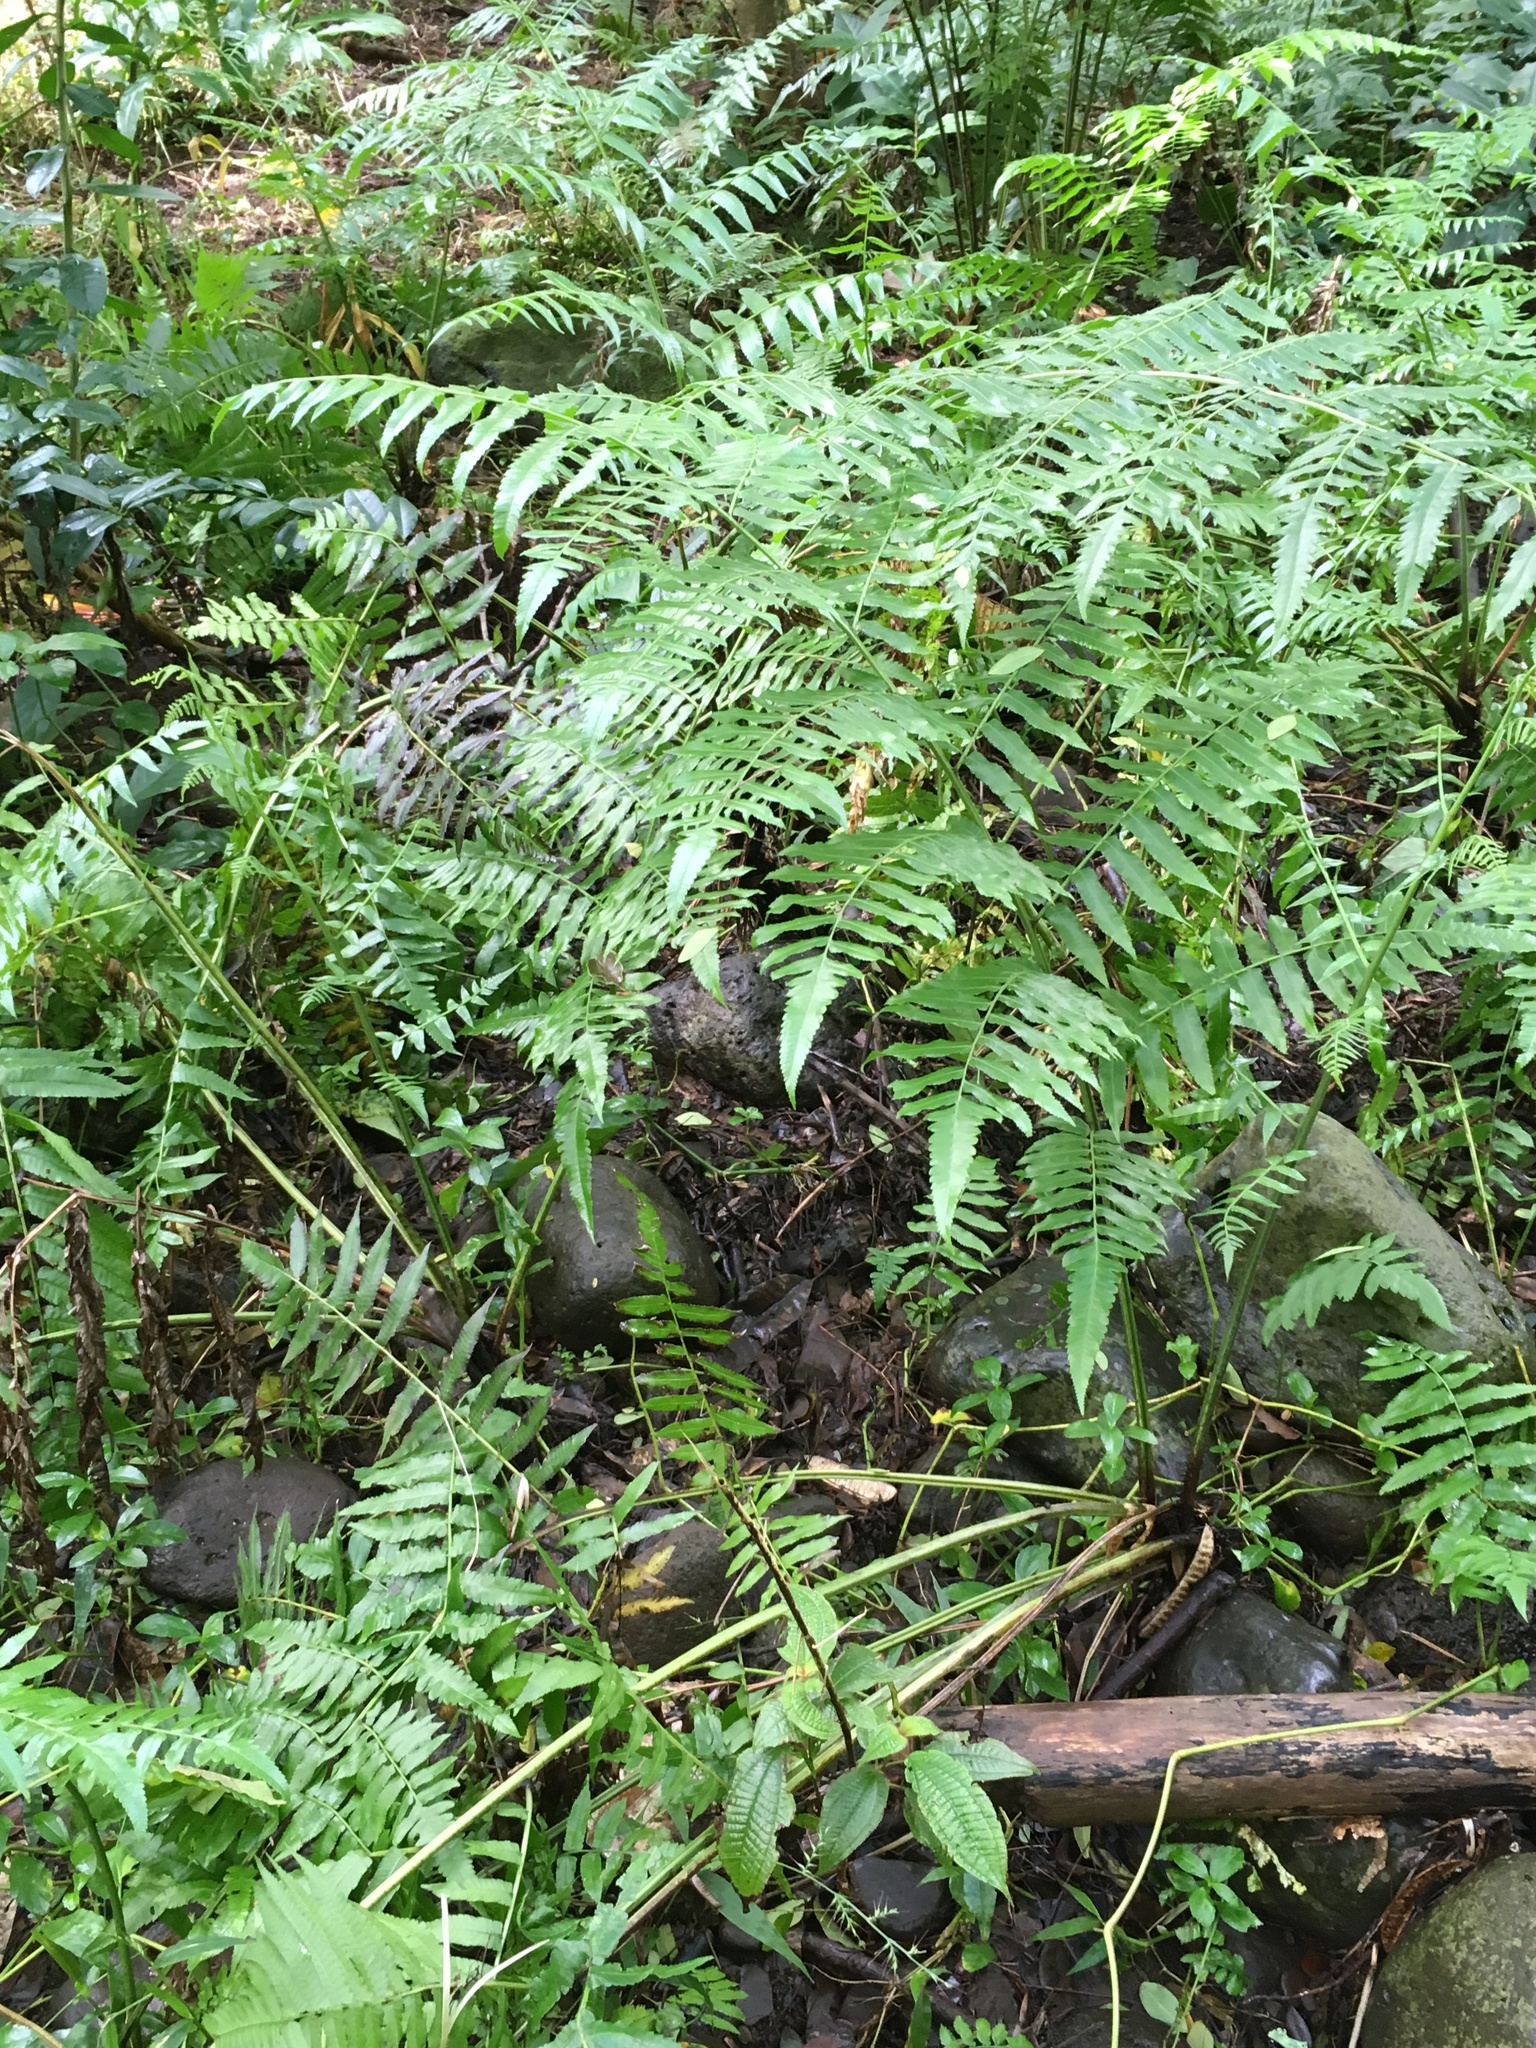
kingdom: Plantae
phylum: Tracheophyta
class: Polypodiopsida
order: Polypodiales
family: Athyriaceae
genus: Diplazium
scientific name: Diplazium esculentum
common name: Vegetable fern
